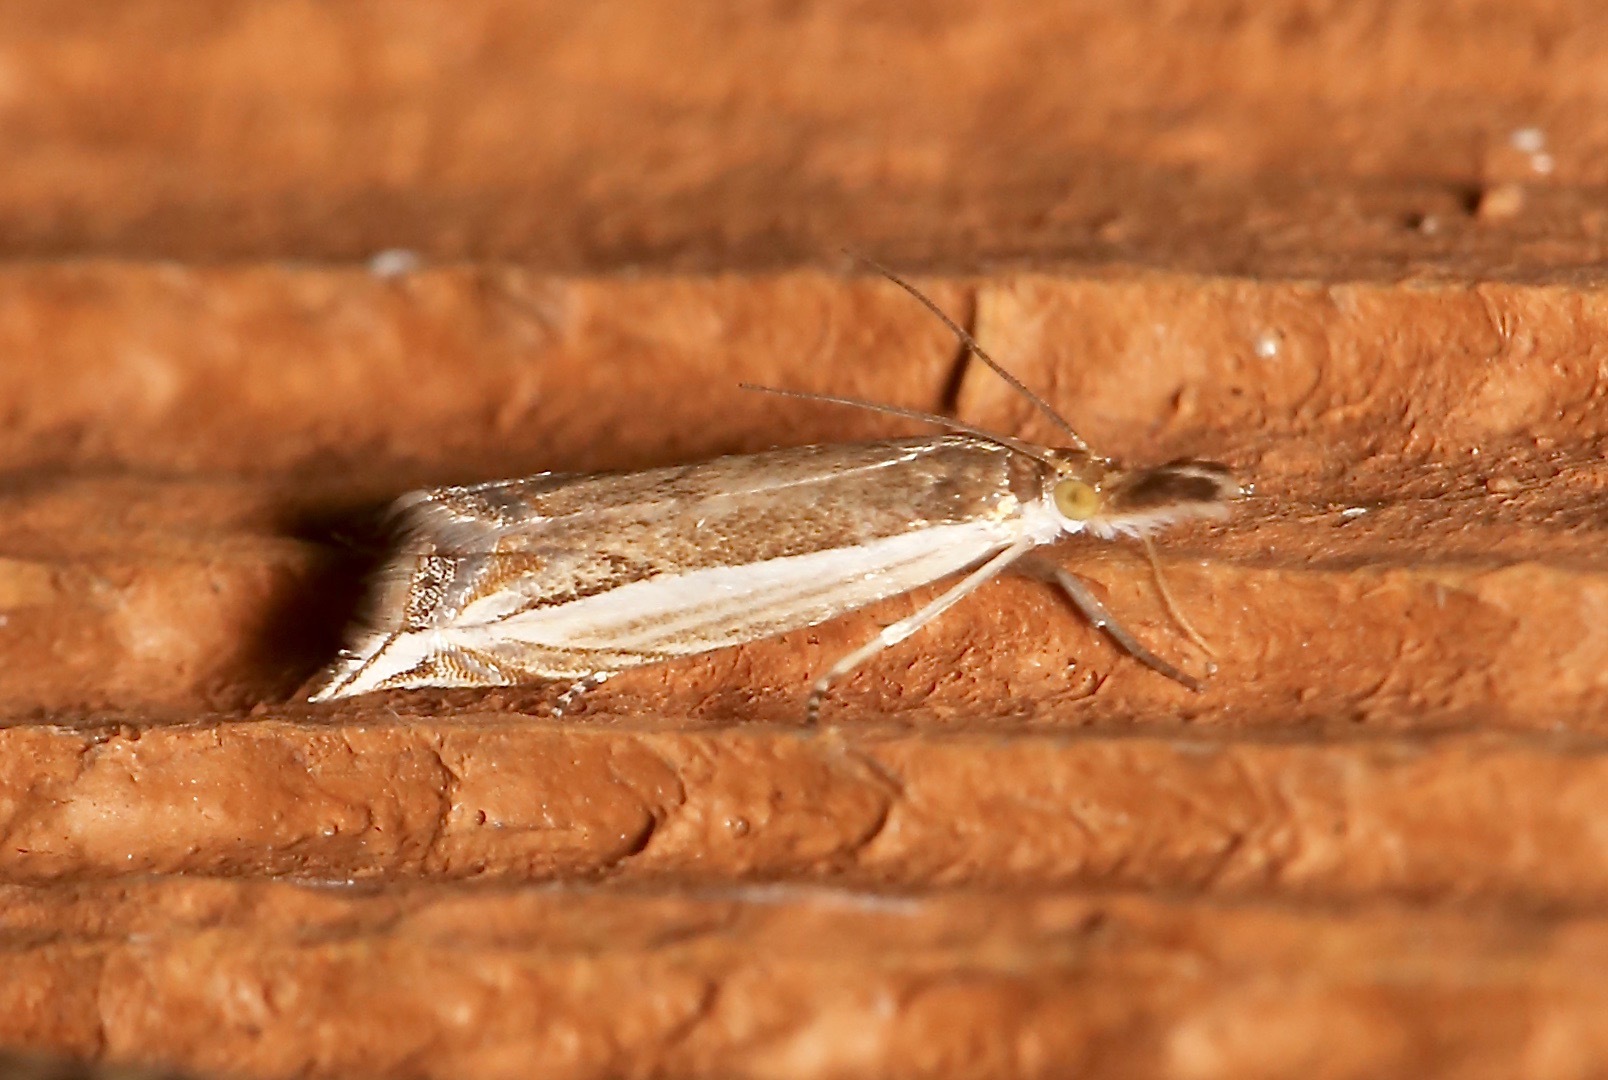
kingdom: Animalia
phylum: Arthropoda
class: Insecta
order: Lepidoptera
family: Crambidae
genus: Raphiptera
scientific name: Raphiptera argillaceellus
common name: Diminutive grass-veneer
